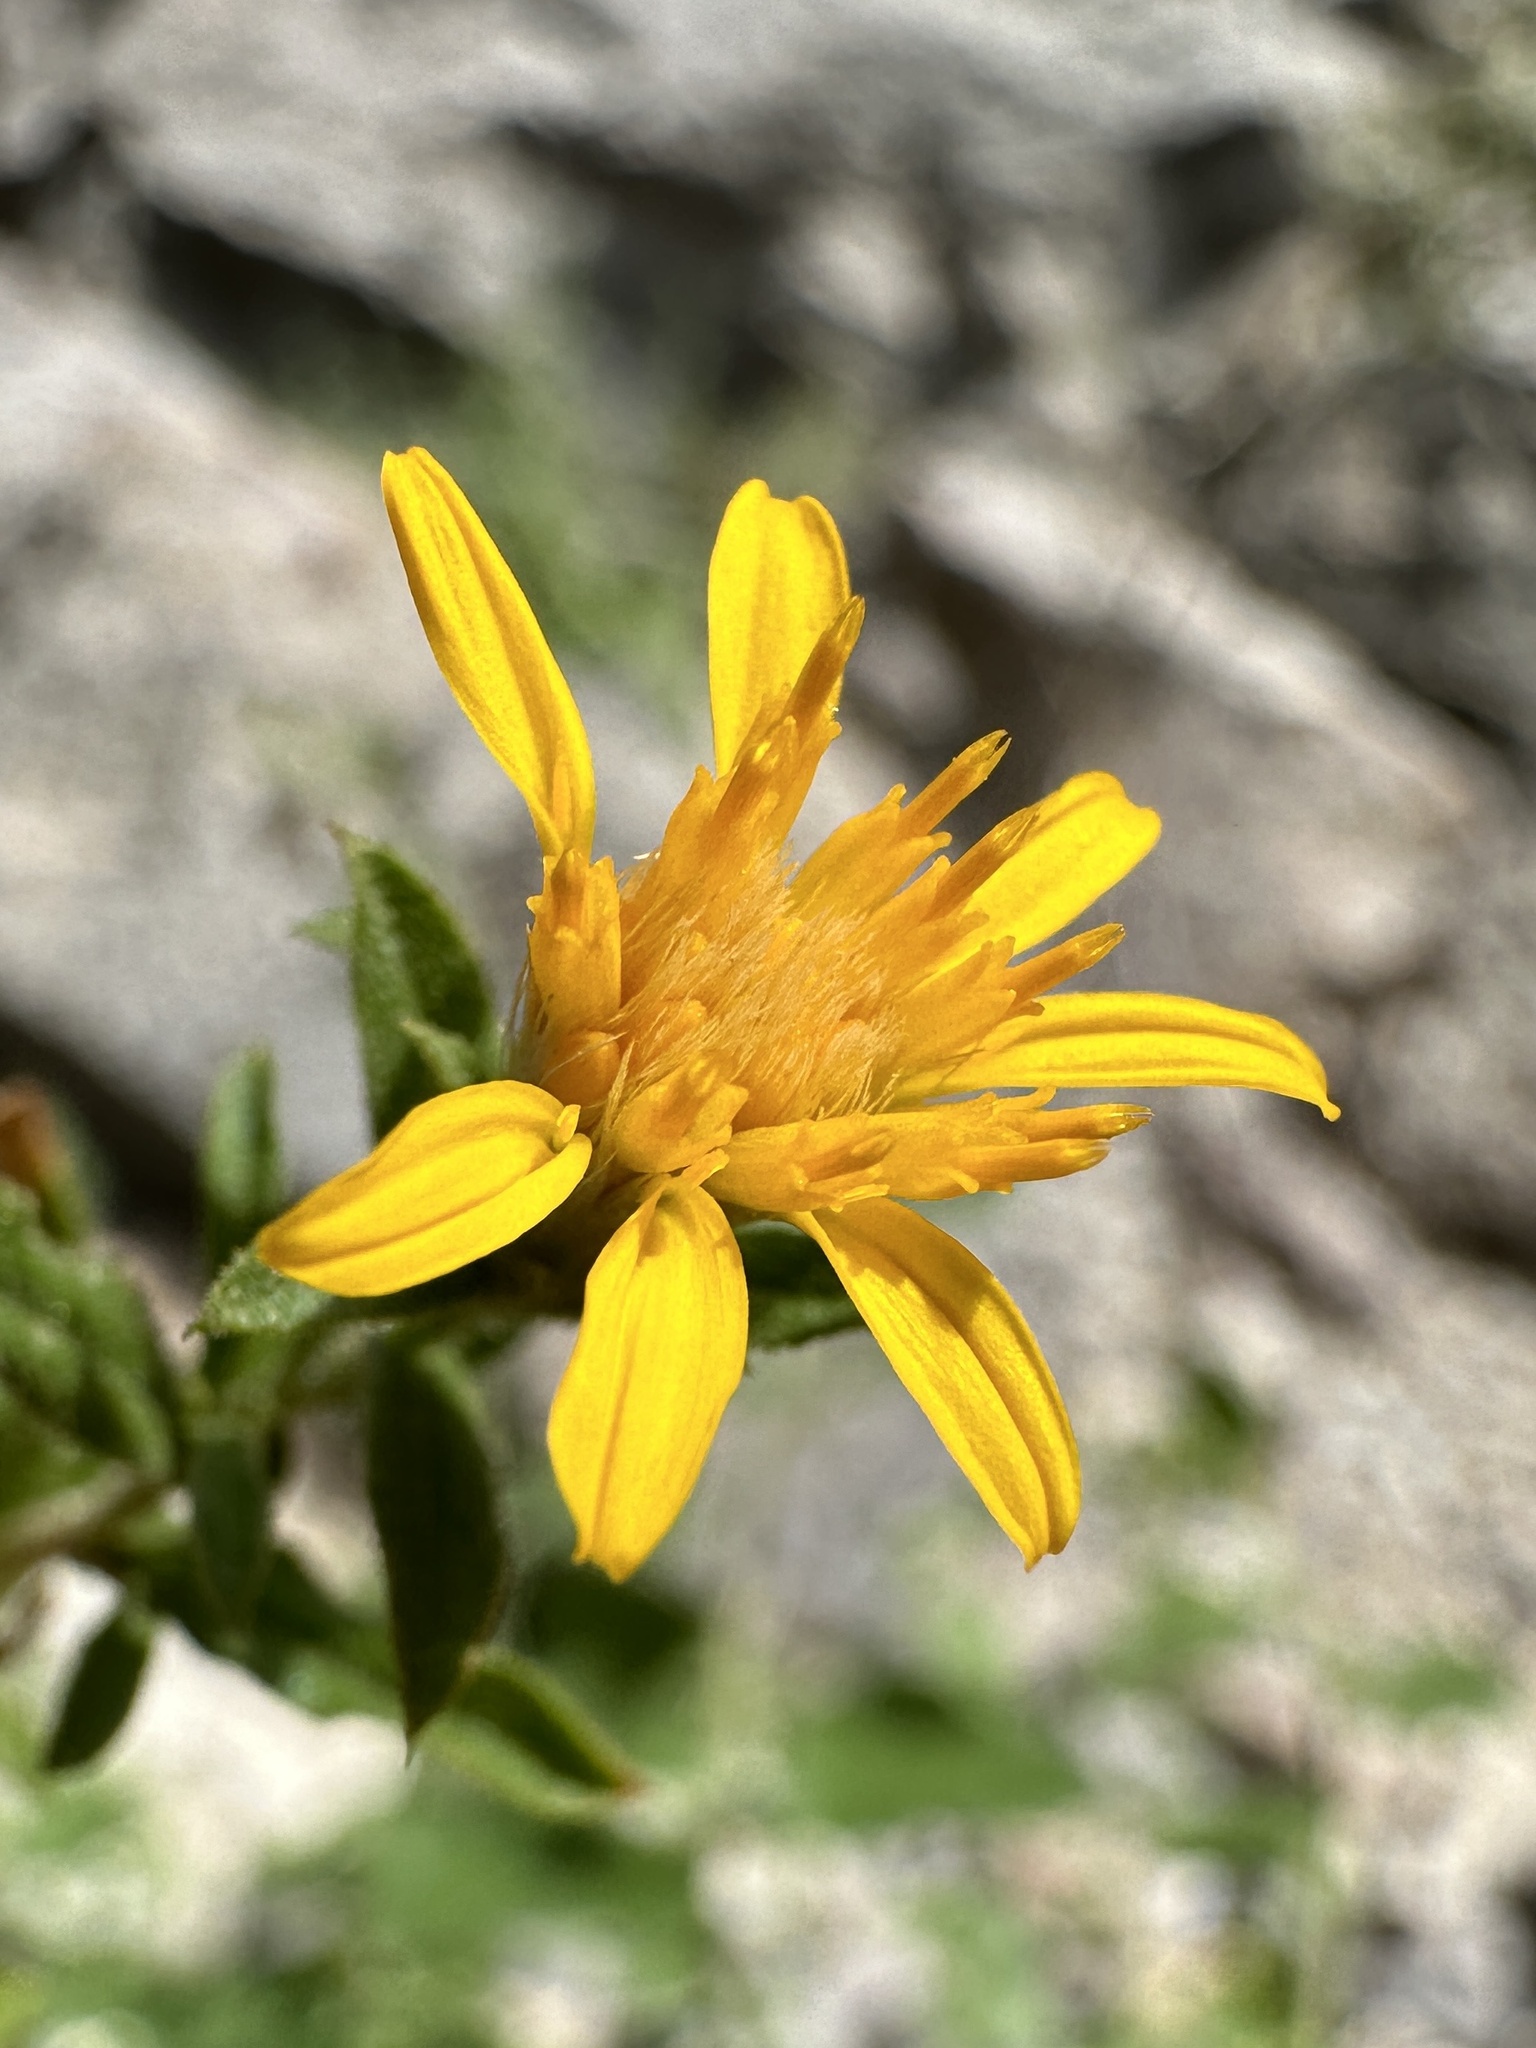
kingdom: Plantae
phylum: Tracheophyta
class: Magnoliopsida
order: Asterales
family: Asteraceae
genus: Ericameria
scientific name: Ericameria cervina
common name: Antelope goldenbush
